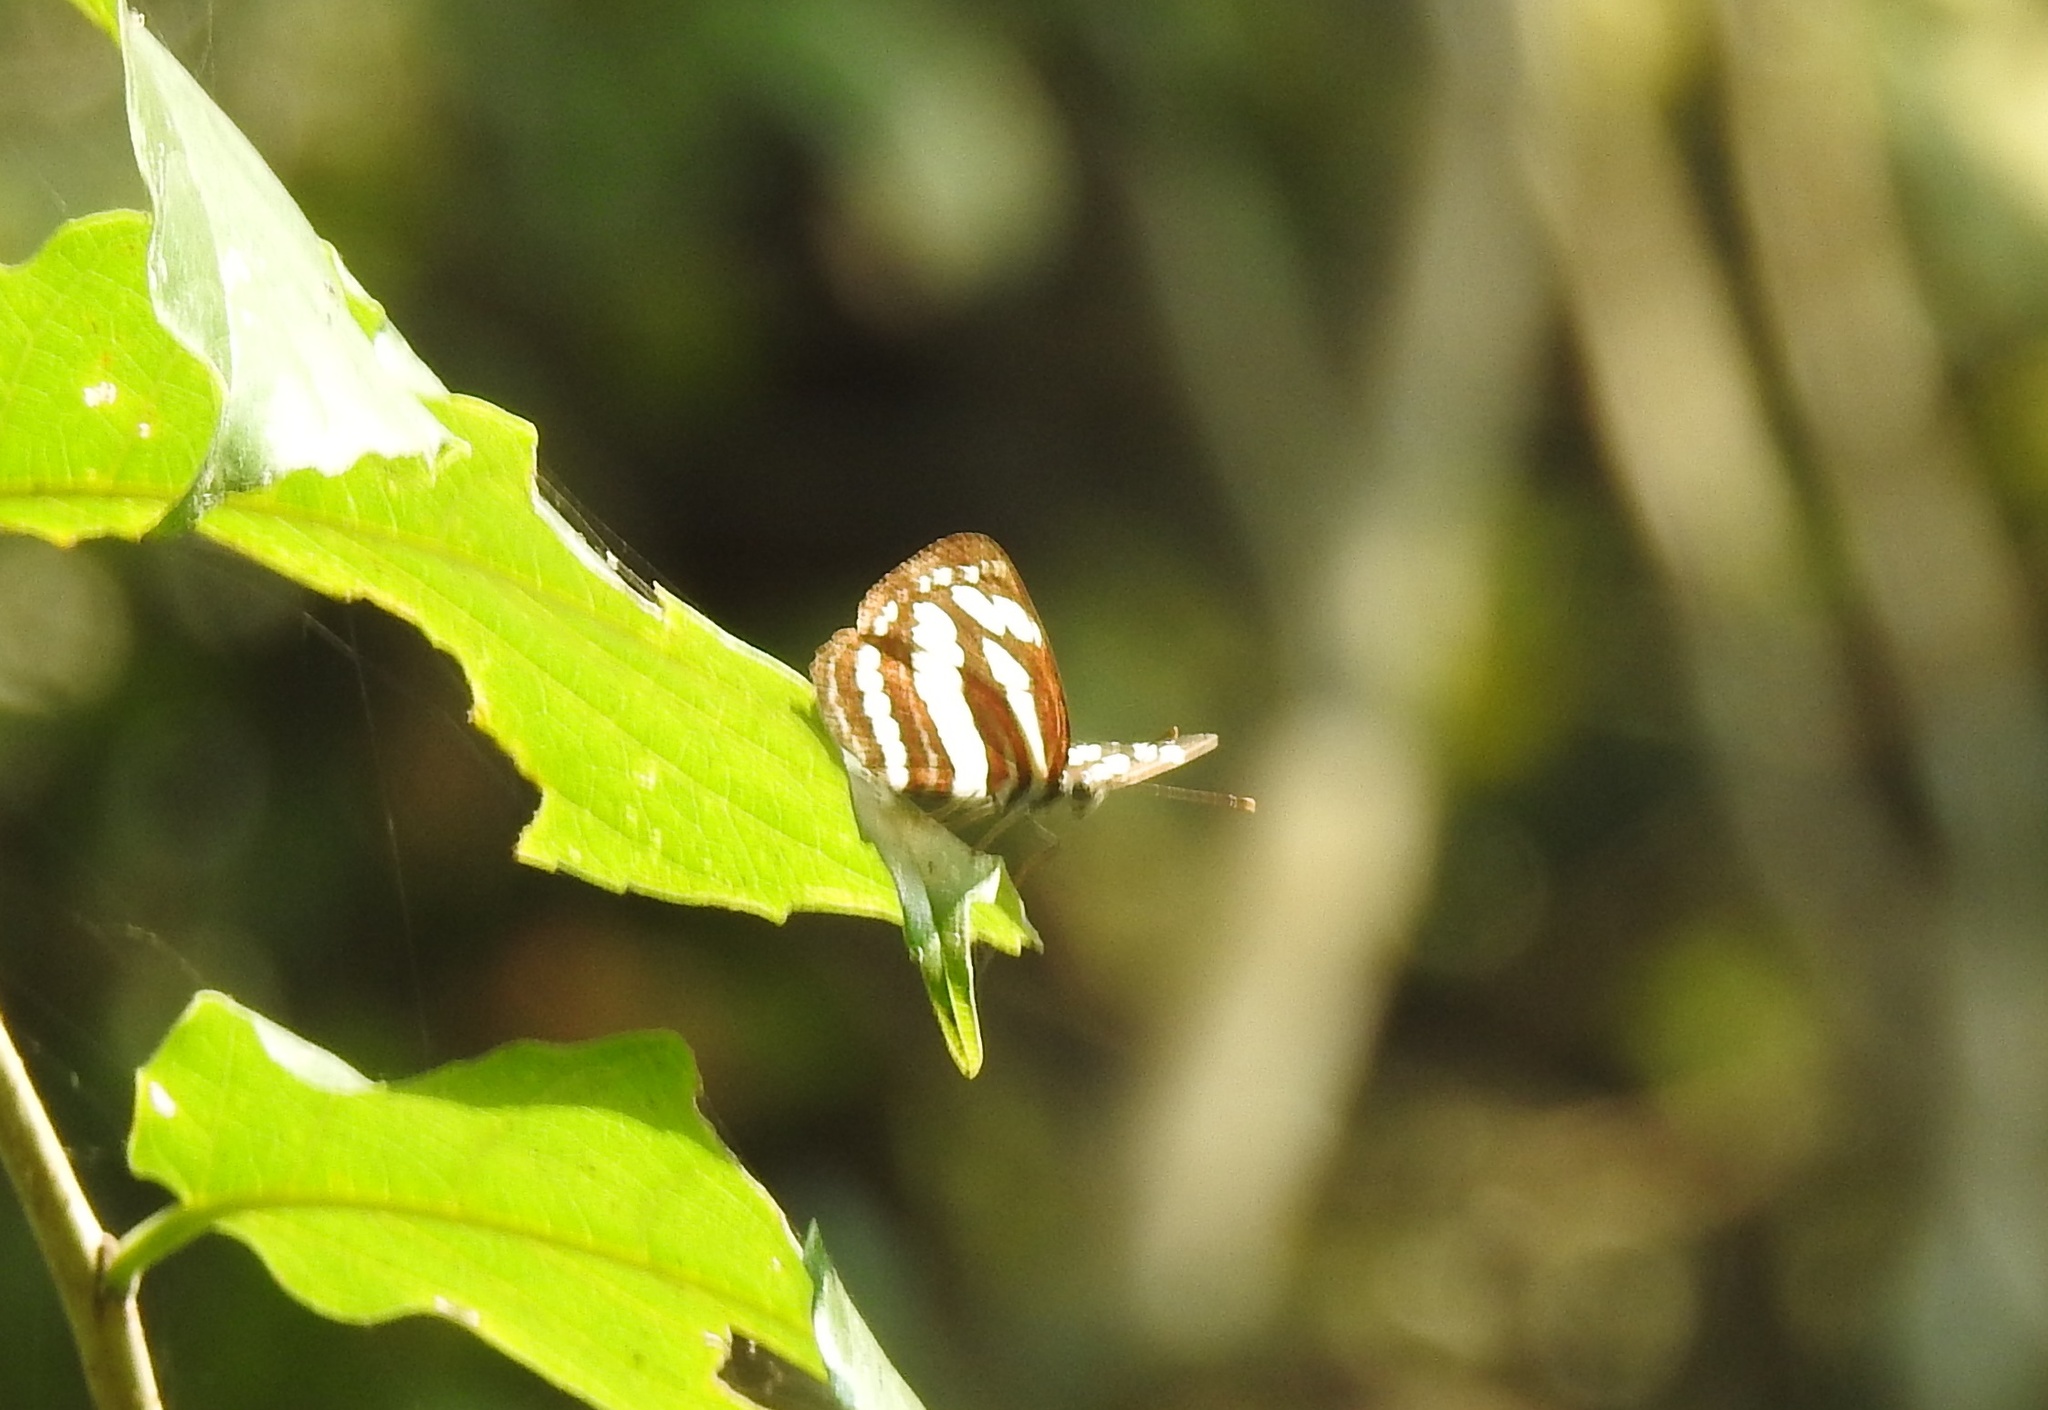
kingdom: Animalia
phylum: Arthropoda
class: Insecta
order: Lepidoptera
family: Nymphalidae
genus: Neptis
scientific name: Neptis hylas
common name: Common sailer
